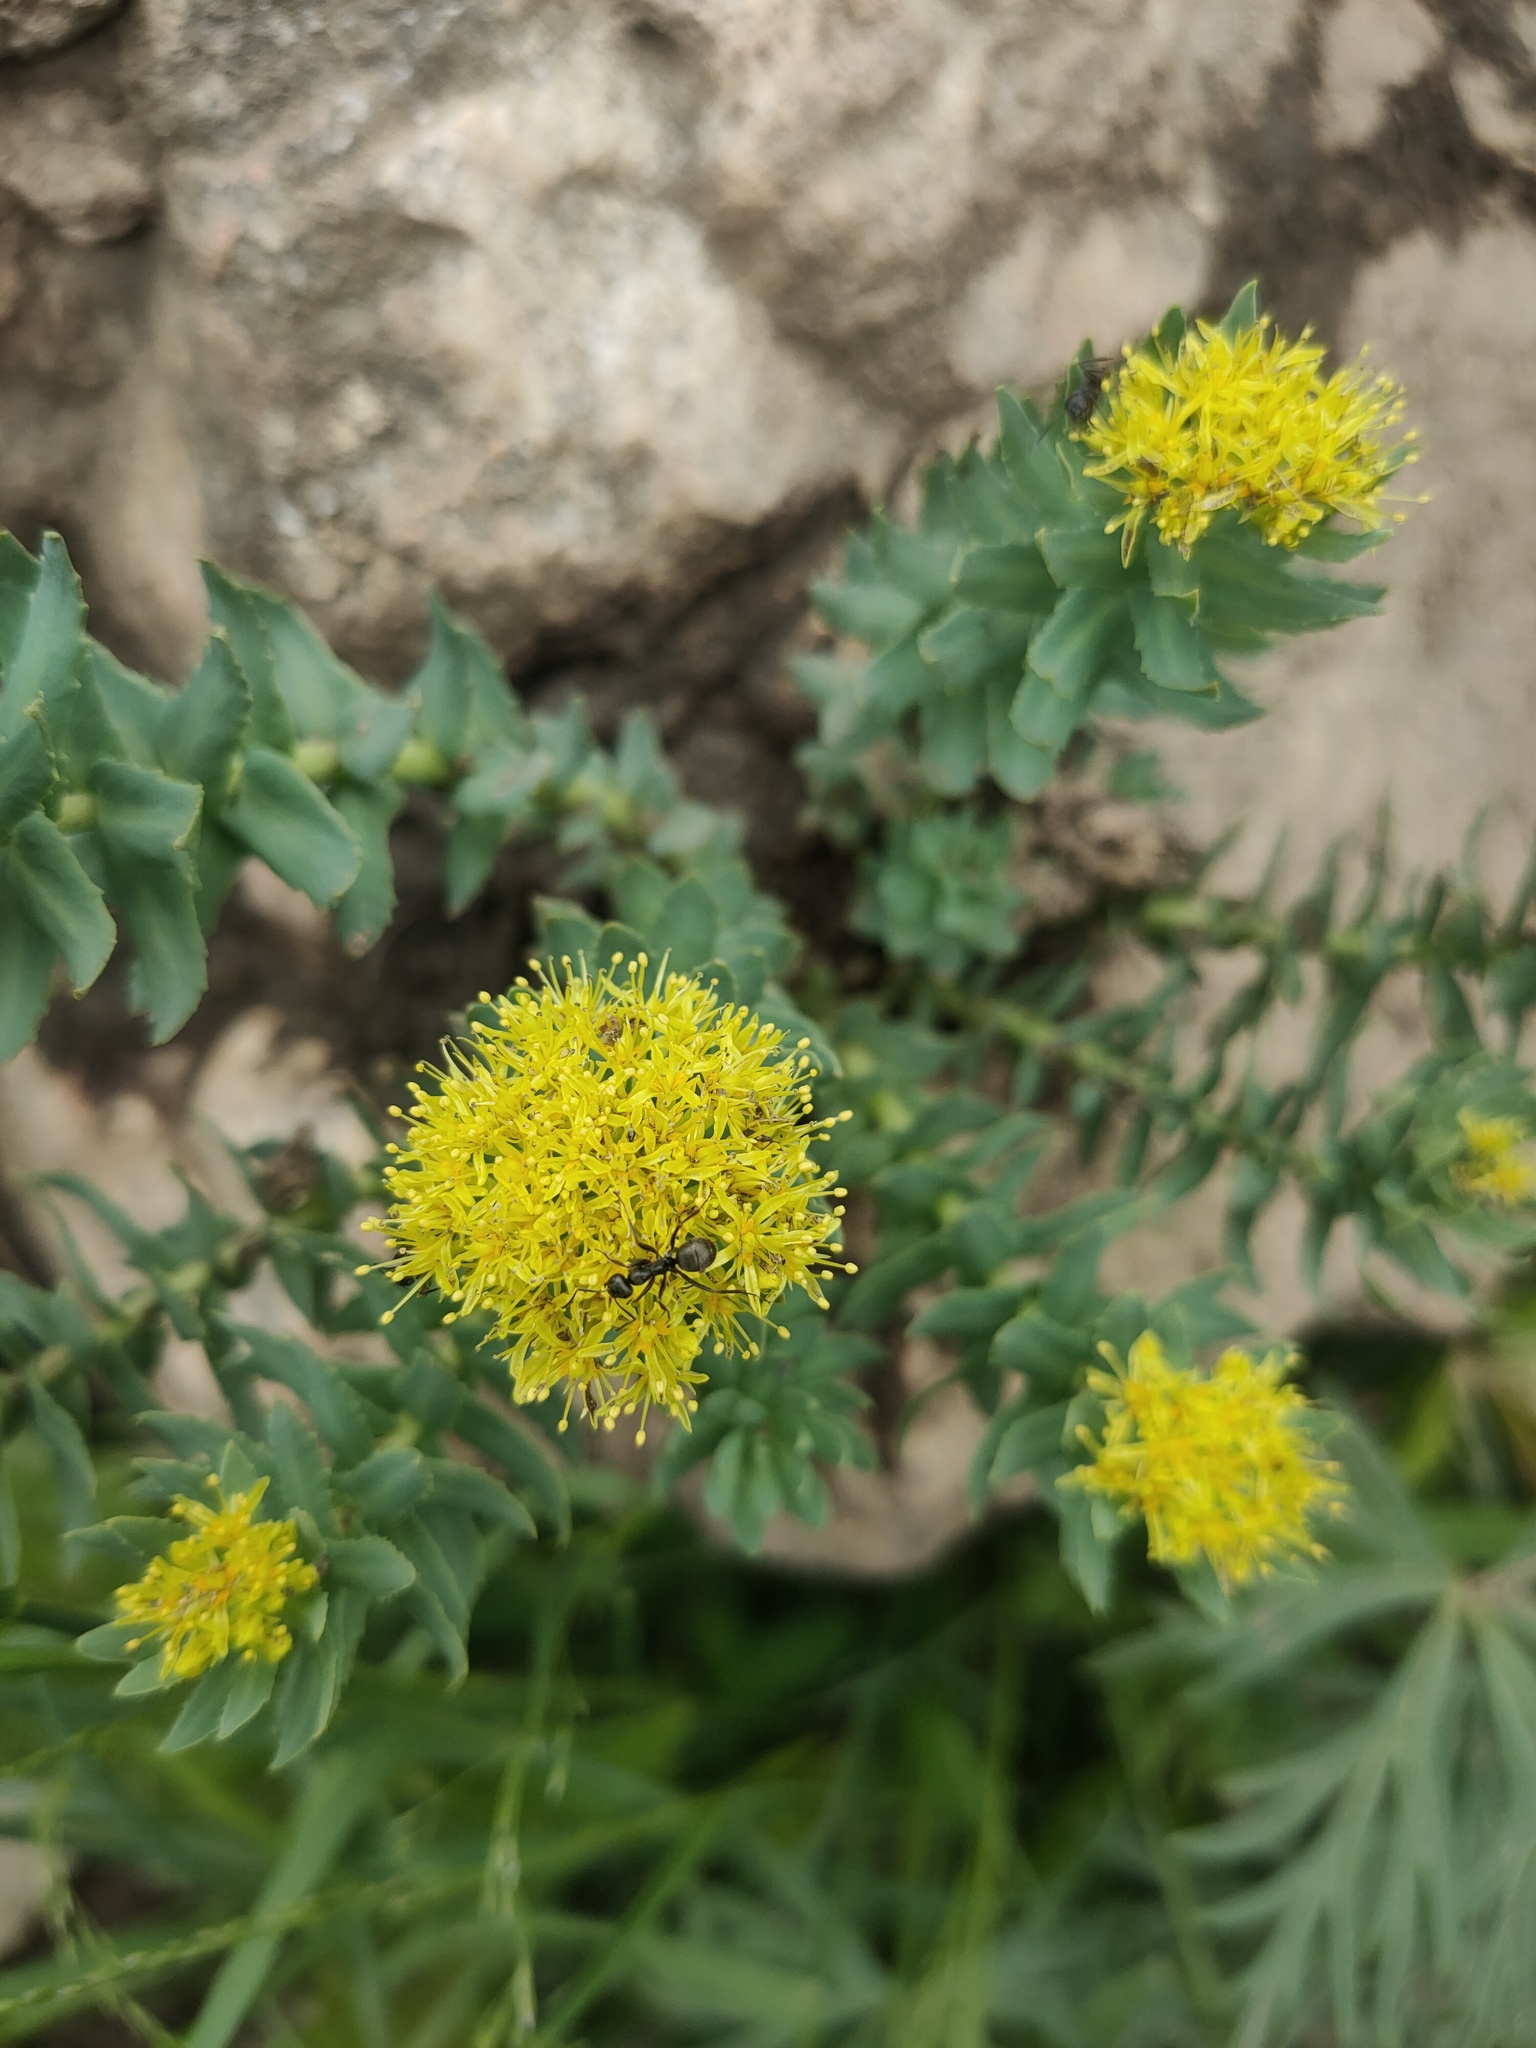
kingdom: Plantae
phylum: Tracheophyta
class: Magnoliopsida
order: Saxifragales
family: Crassulaceae
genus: Rhodiola
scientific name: Rhodiola rosea
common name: Roseroot
